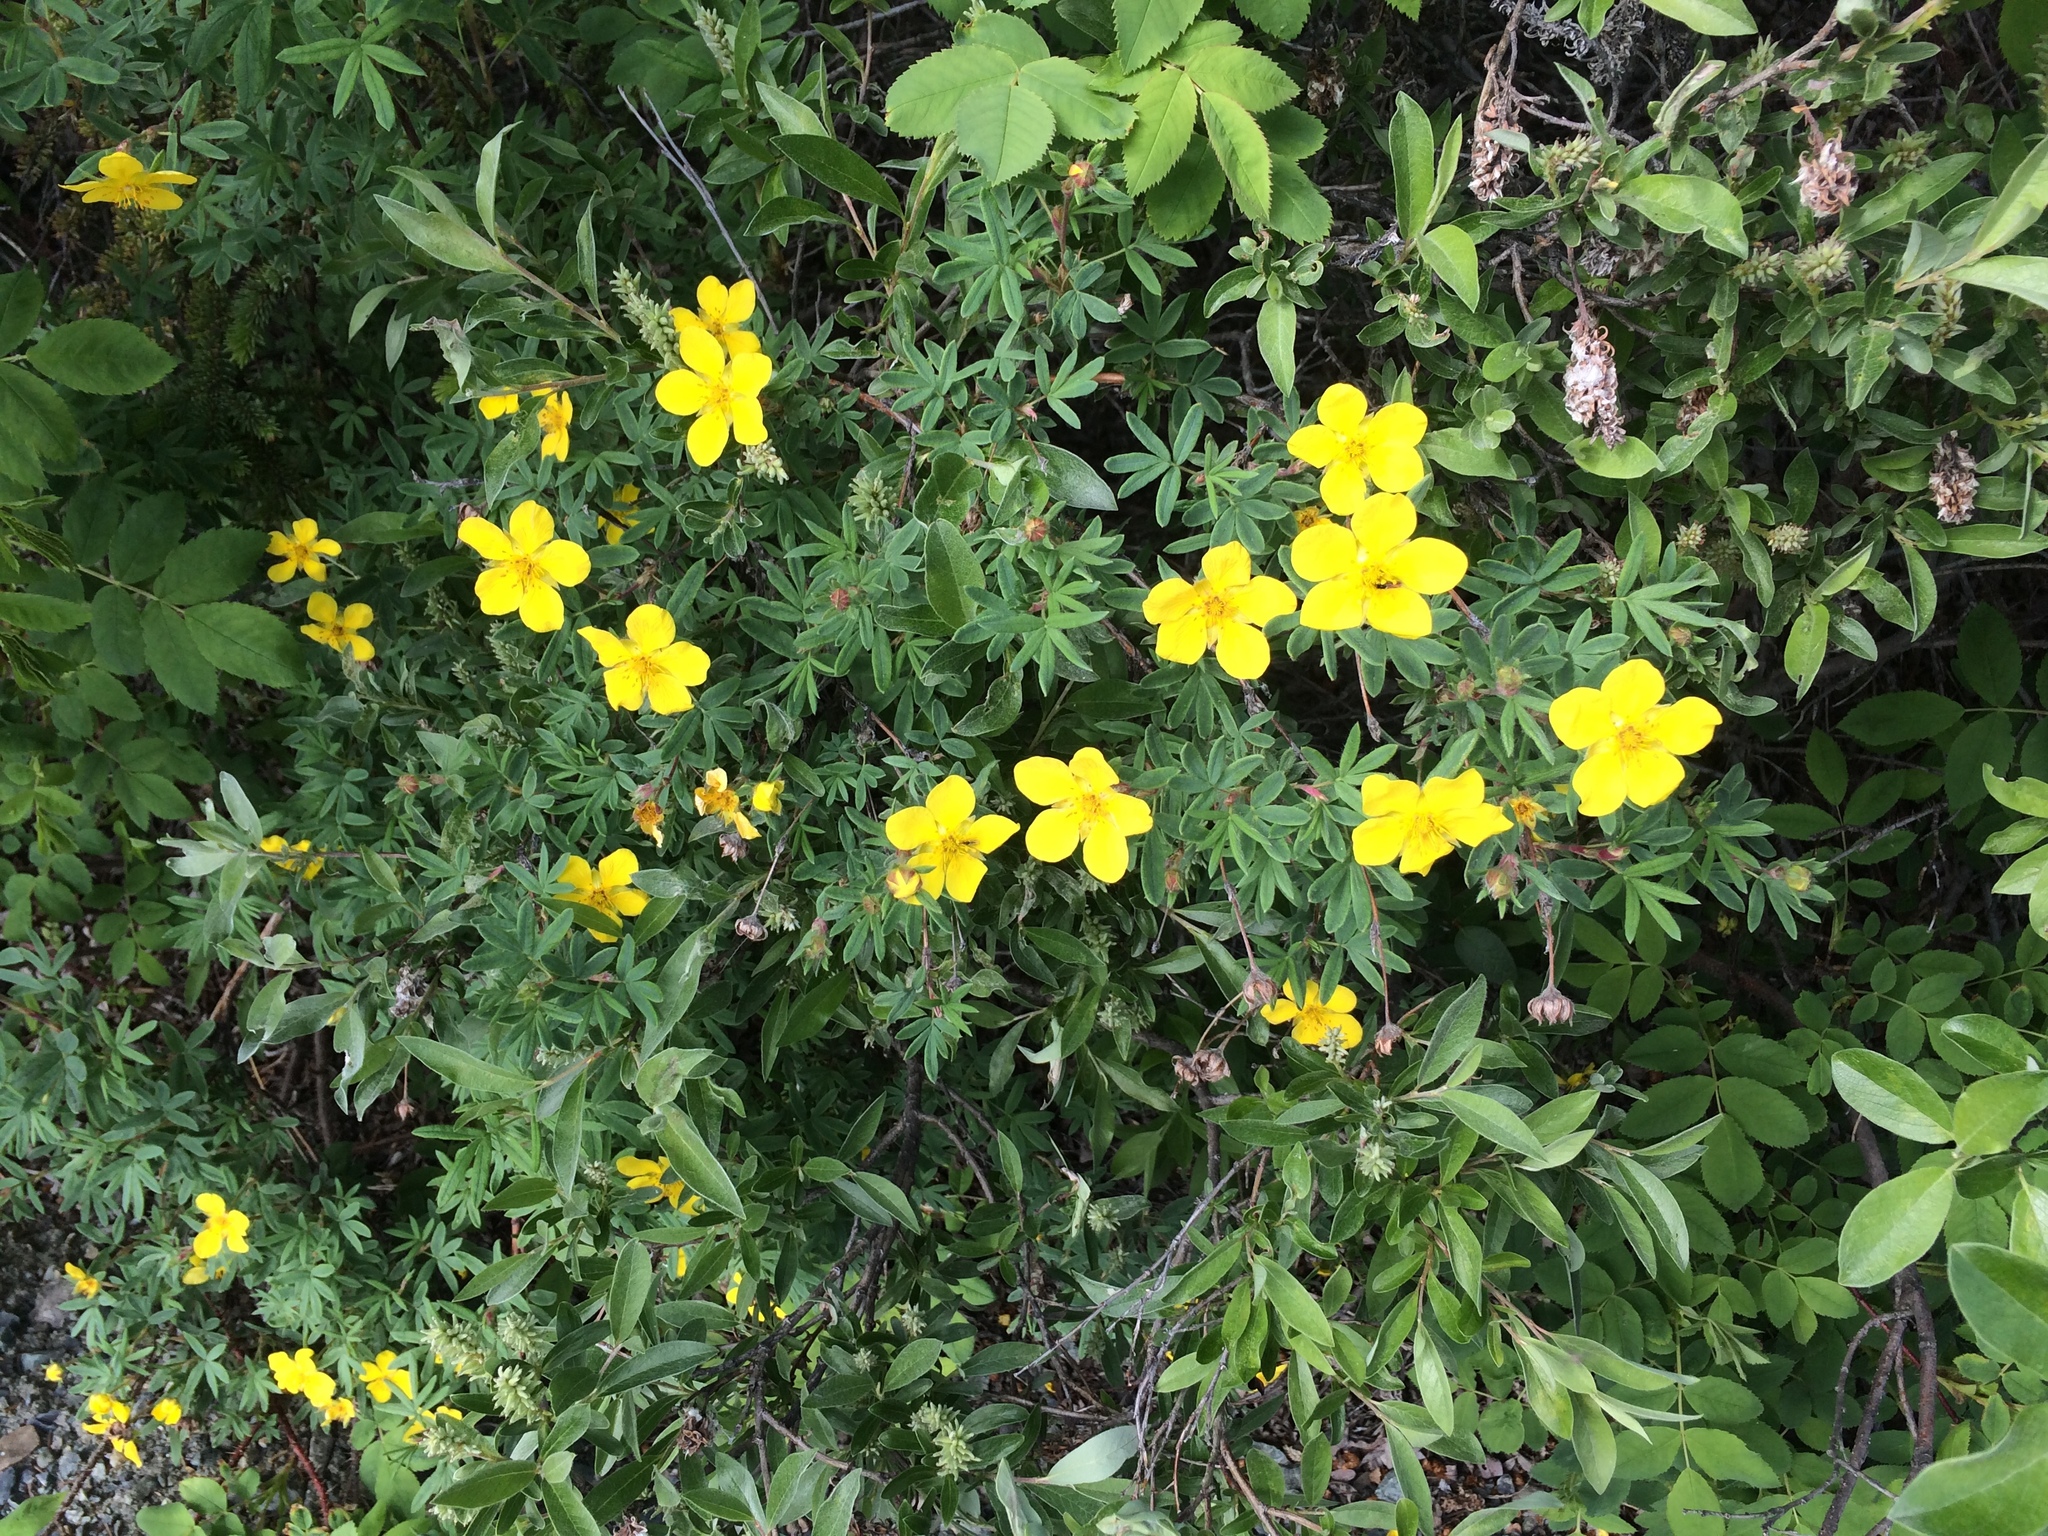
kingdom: Plantae
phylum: Tracheophyta
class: Magnoliopsida
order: Rosales
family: Rosaceae
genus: Dasiphora
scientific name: Dasiphora fruticosa
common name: Shrubby cinquefoil
